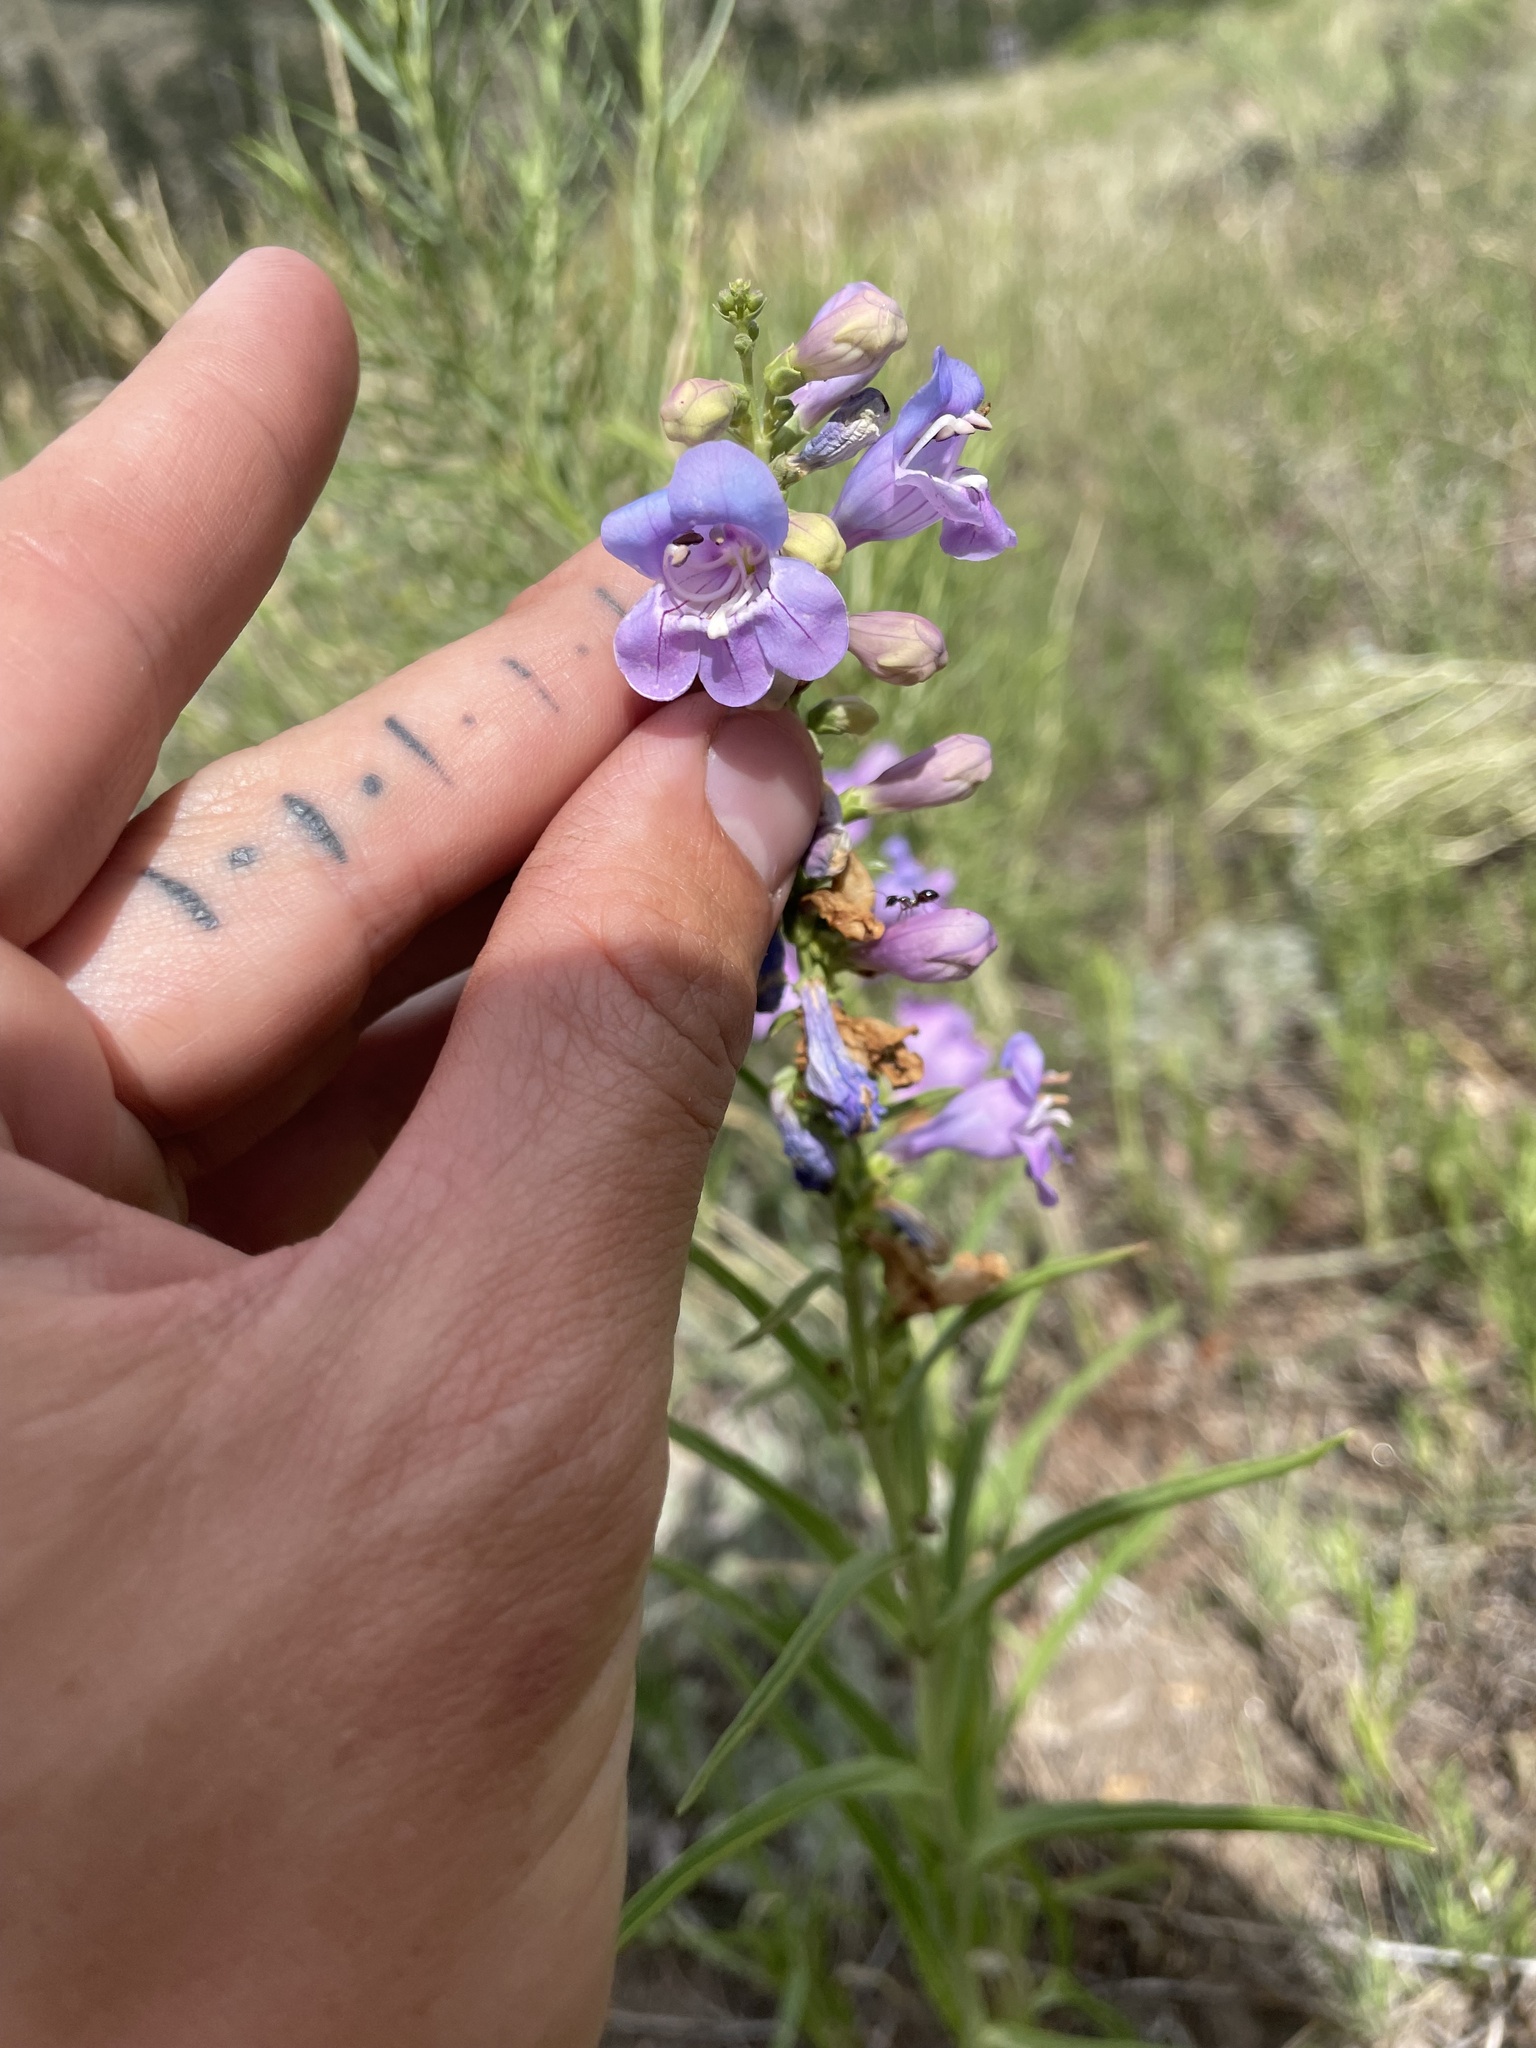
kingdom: Plantae
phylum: Tracheophyta
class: Magnoliopsida
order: Lamiales
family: Plantaginaceae
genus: Penstemon
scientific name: Penstemon virgatus
